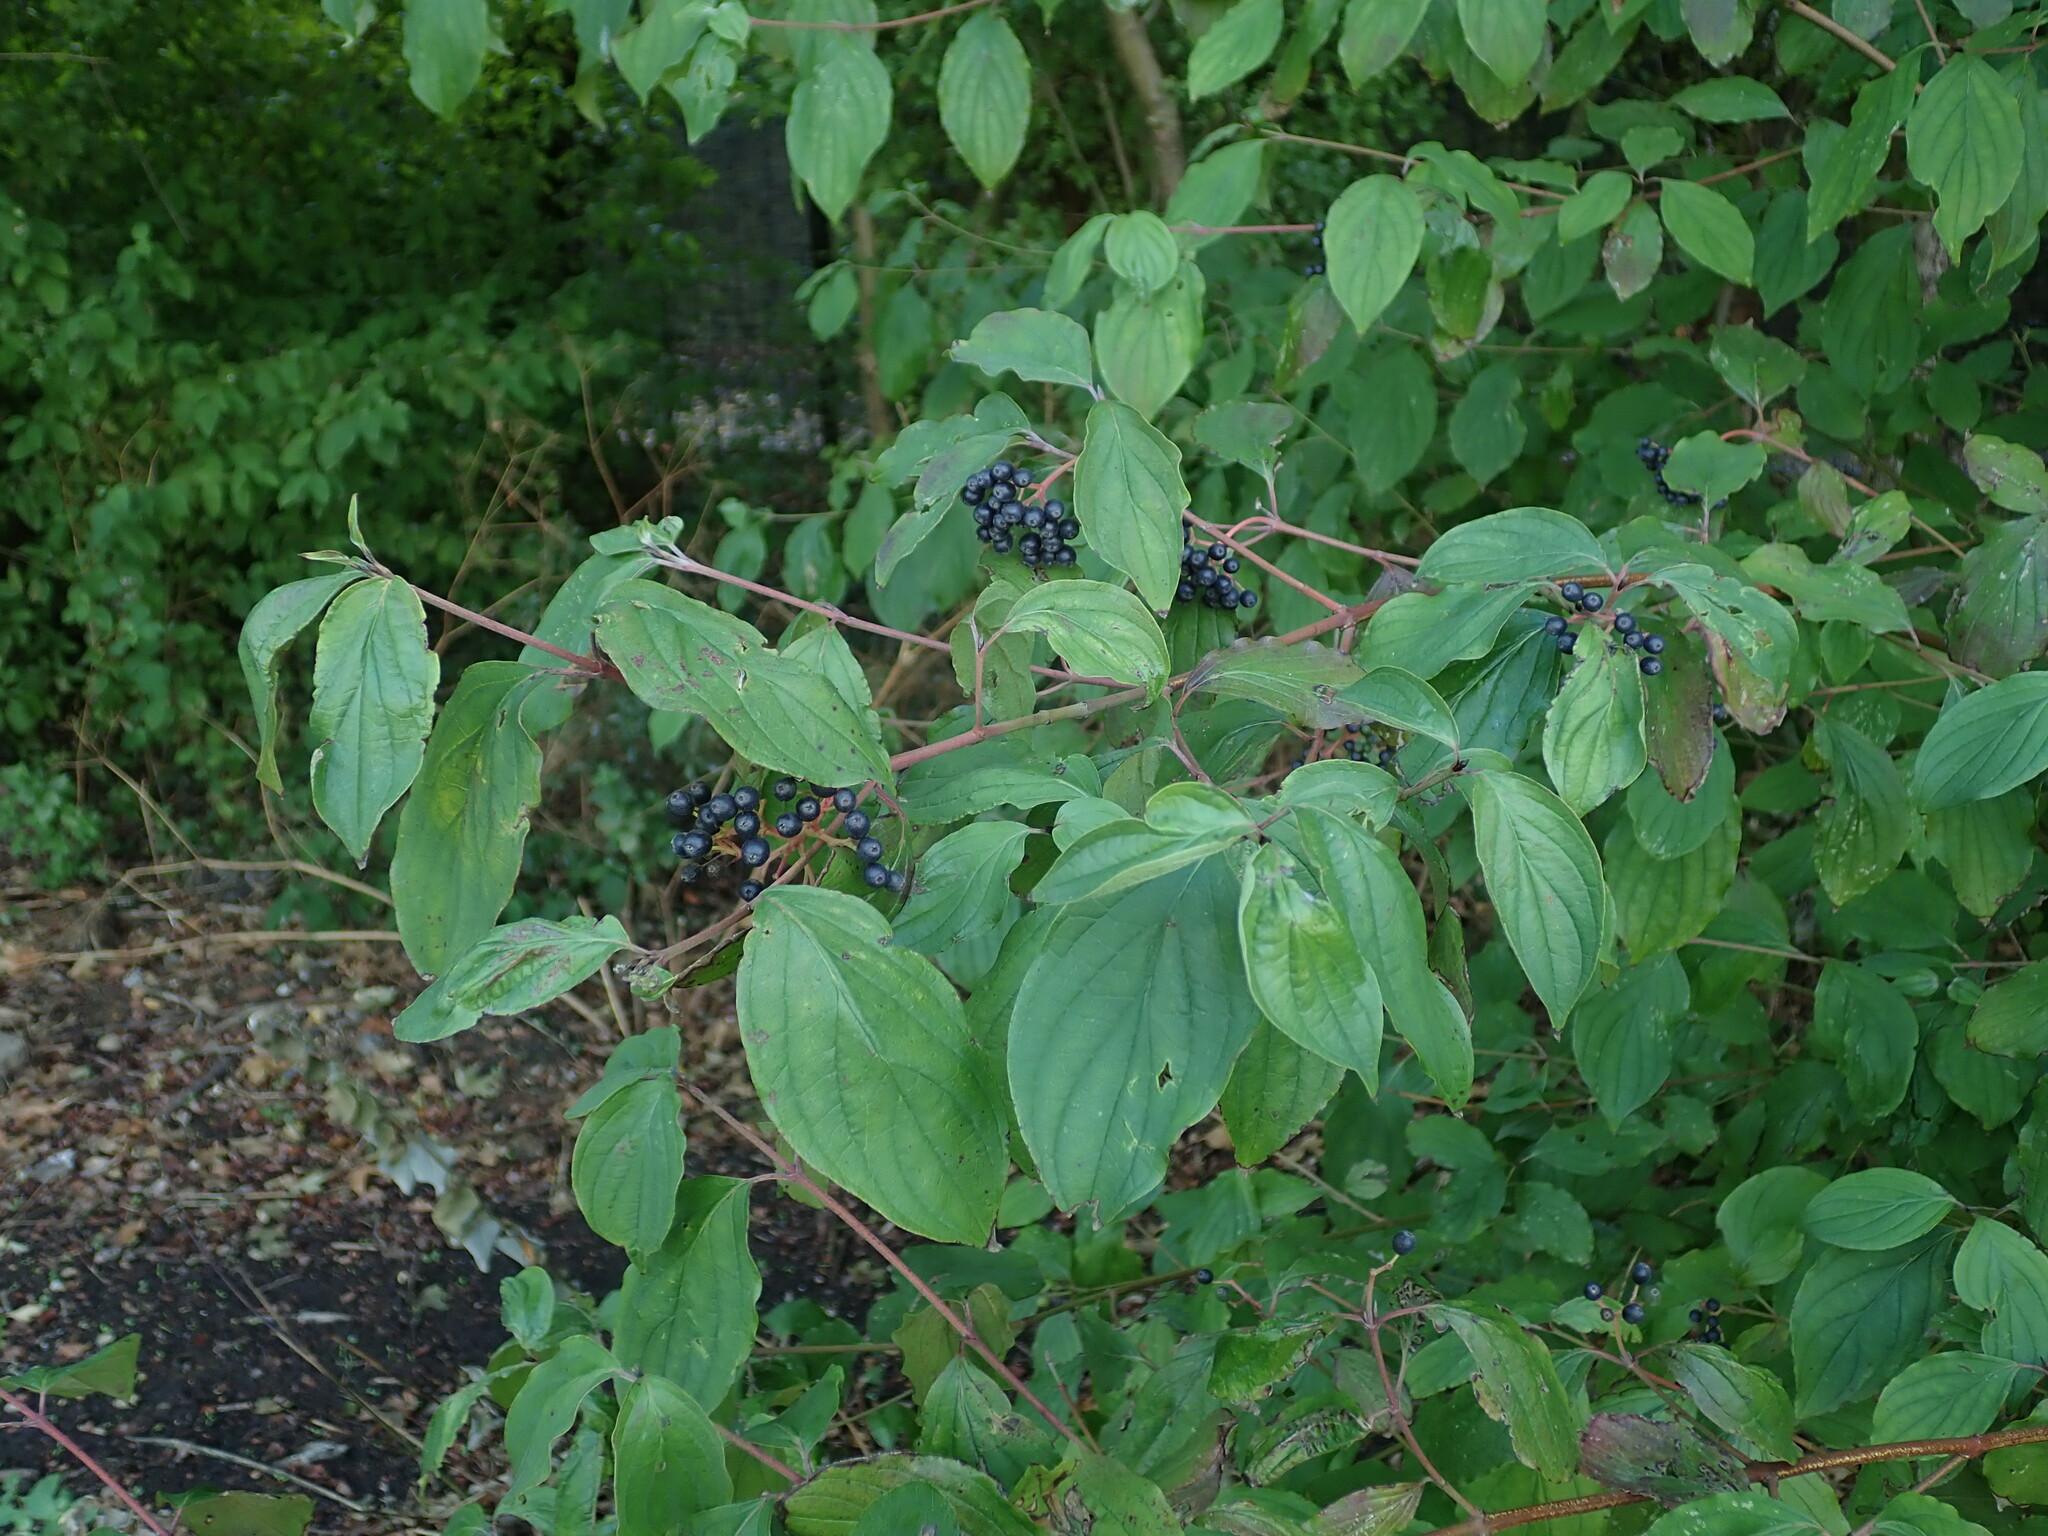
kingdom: Plantae
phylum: Tracheophyta
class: Magnoliopsida
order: Cornales
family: Cornaceae
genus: Cornus
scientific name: Cornus sanguinea
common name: Dogwood
